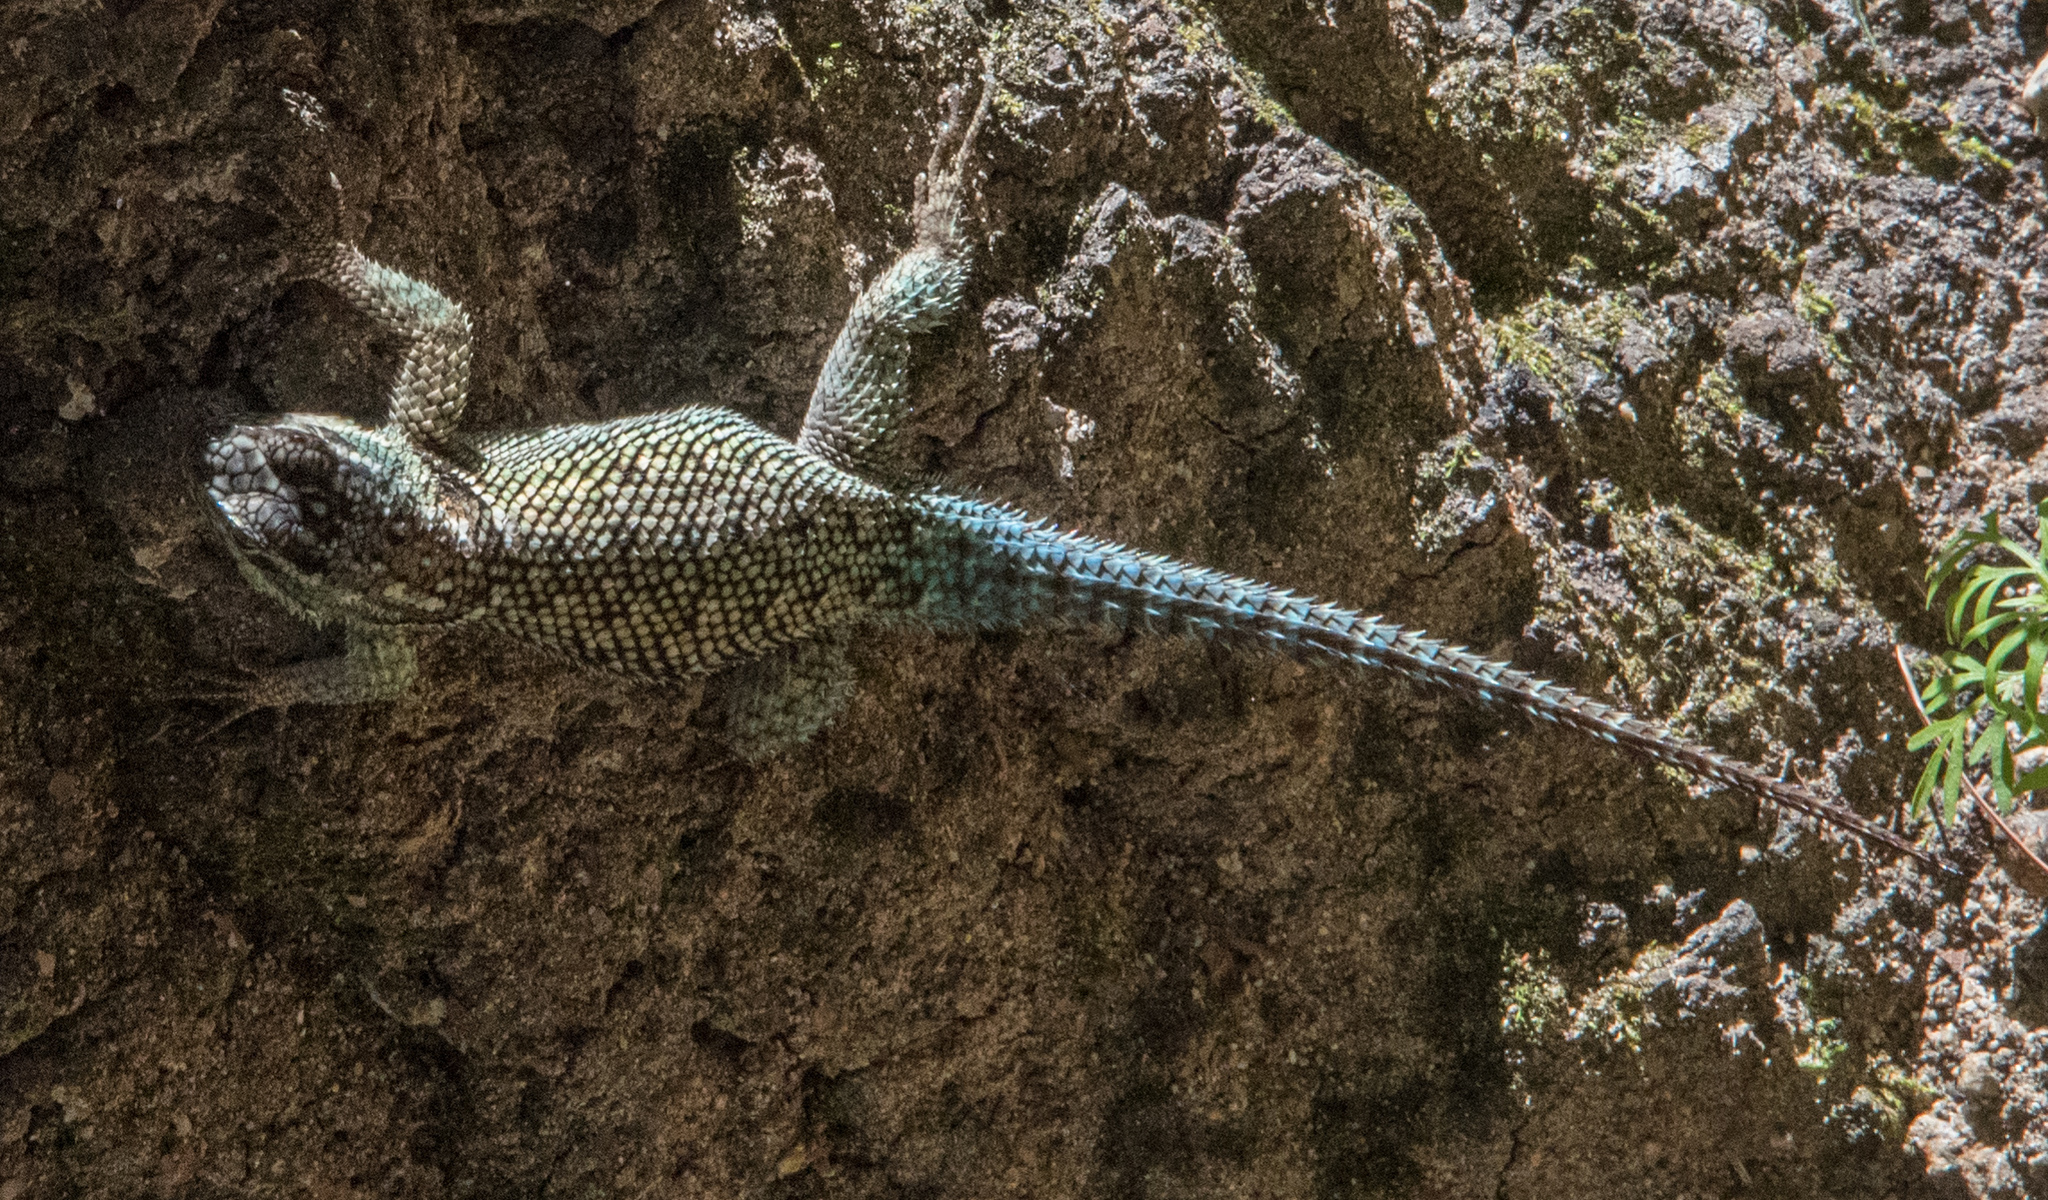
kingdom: Animalia
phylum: Chordata
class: Squamata
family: Phrynosomatidae
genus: Sceloporus
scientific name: Sceloporus jarrovii
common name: Yarrow's spiny lizard
